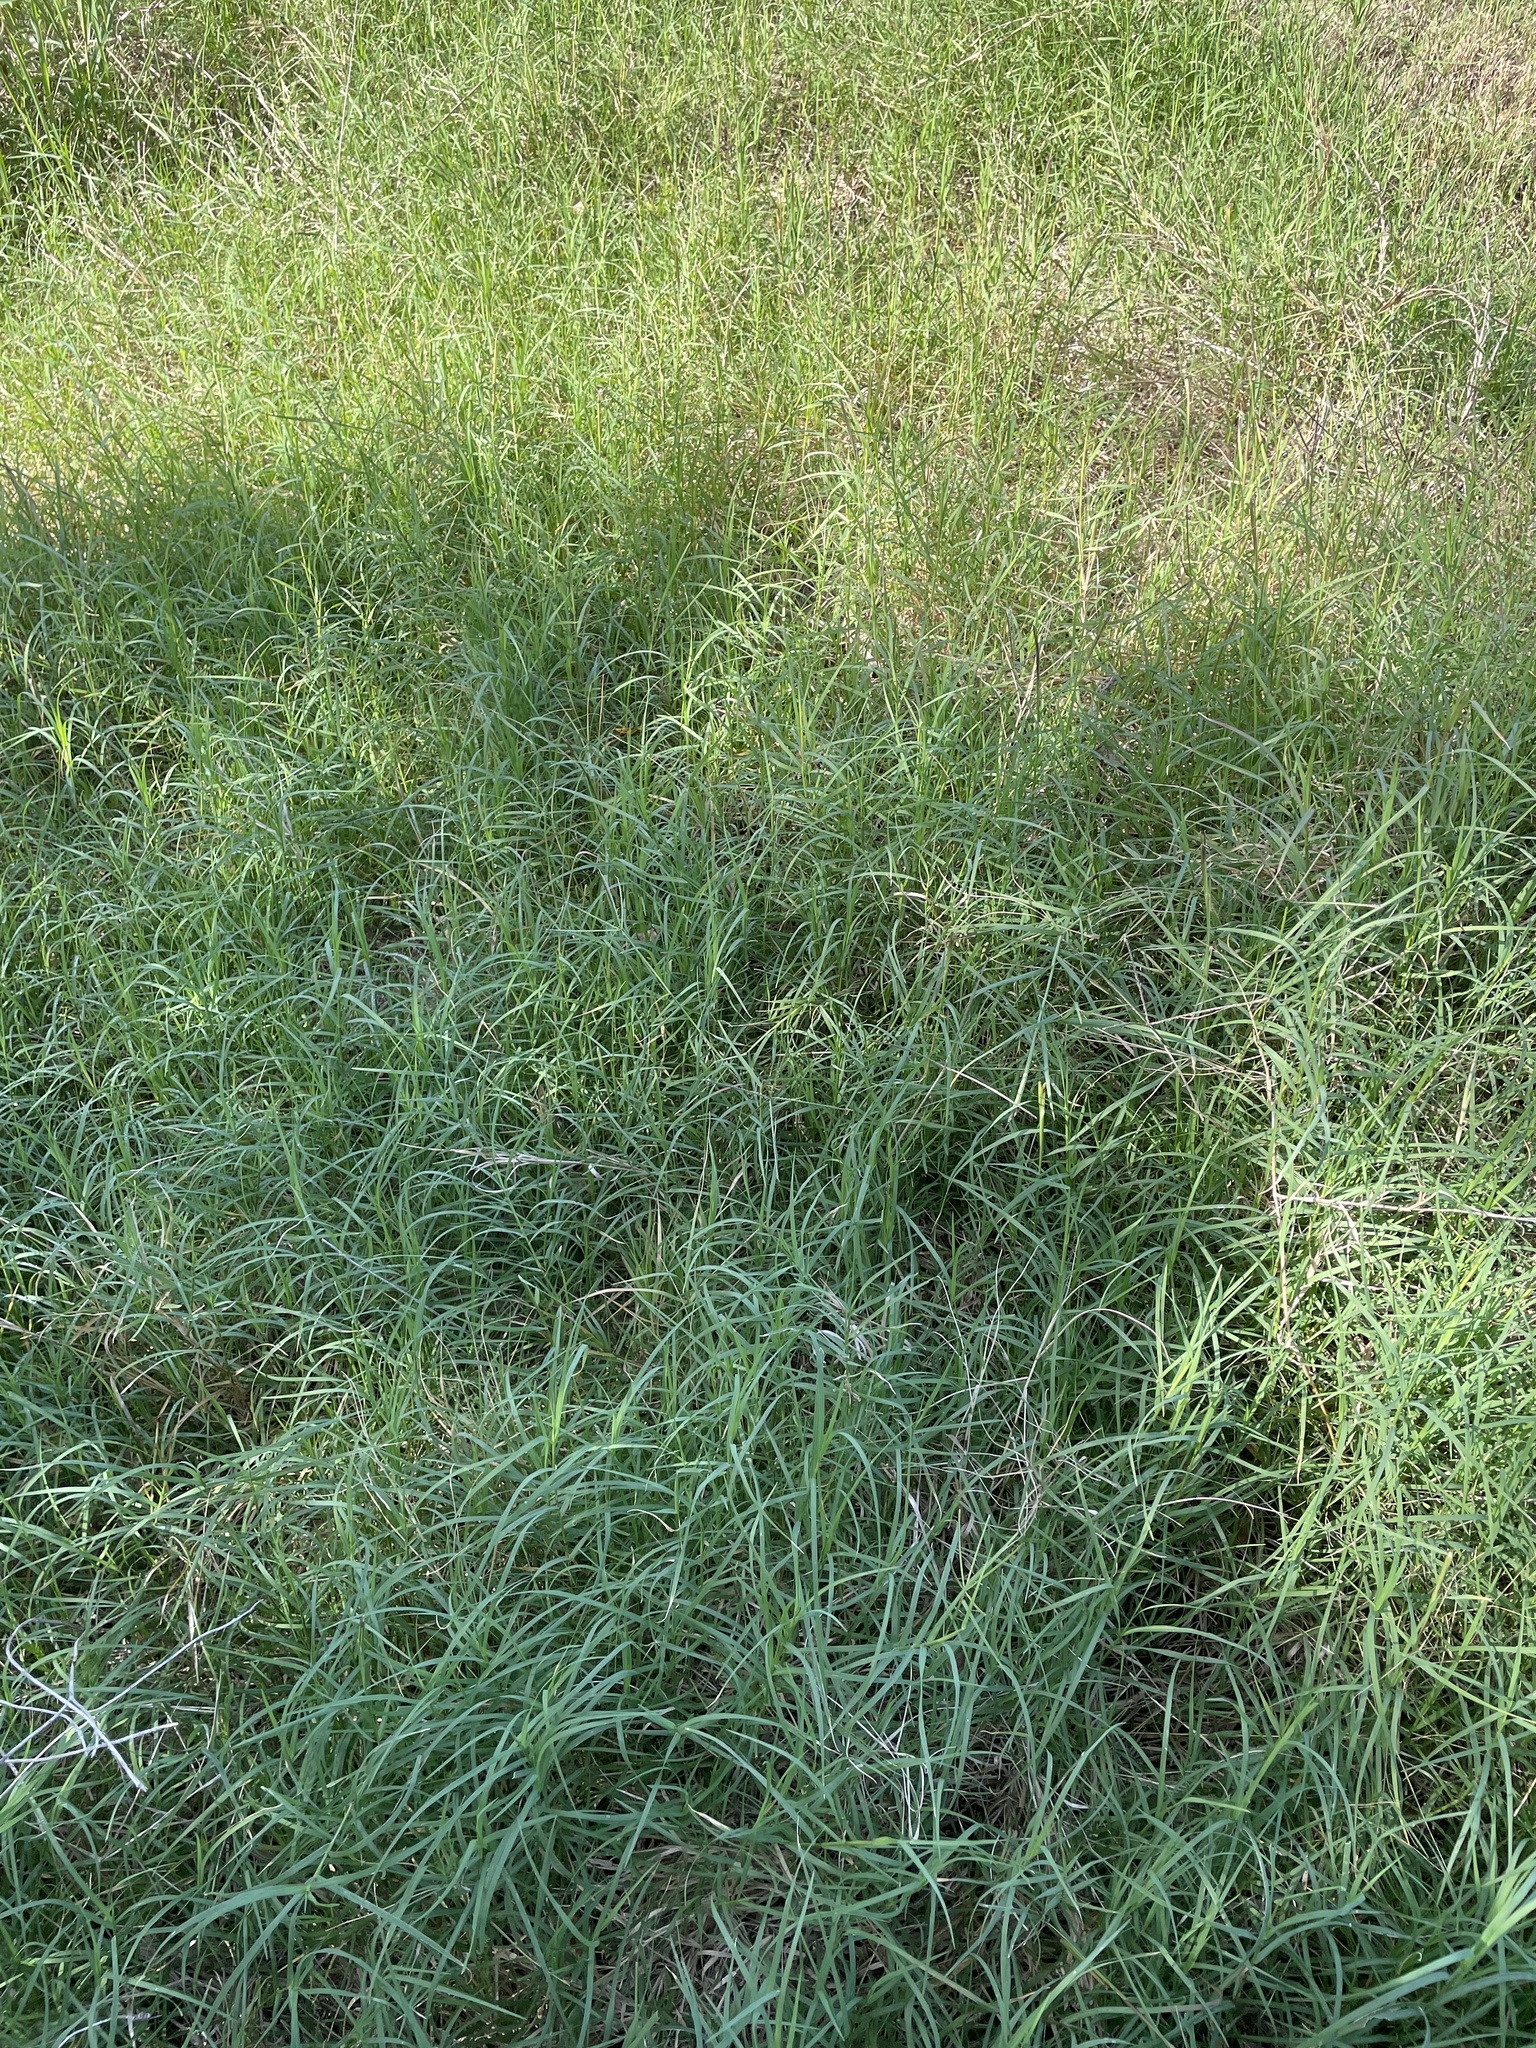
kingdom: Plantae
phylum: Tracheophyta
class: Liliopsida
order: Poales
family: Poaceae
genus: Cynodon
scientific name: Cynodon dactylon
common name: Bermuda grass
